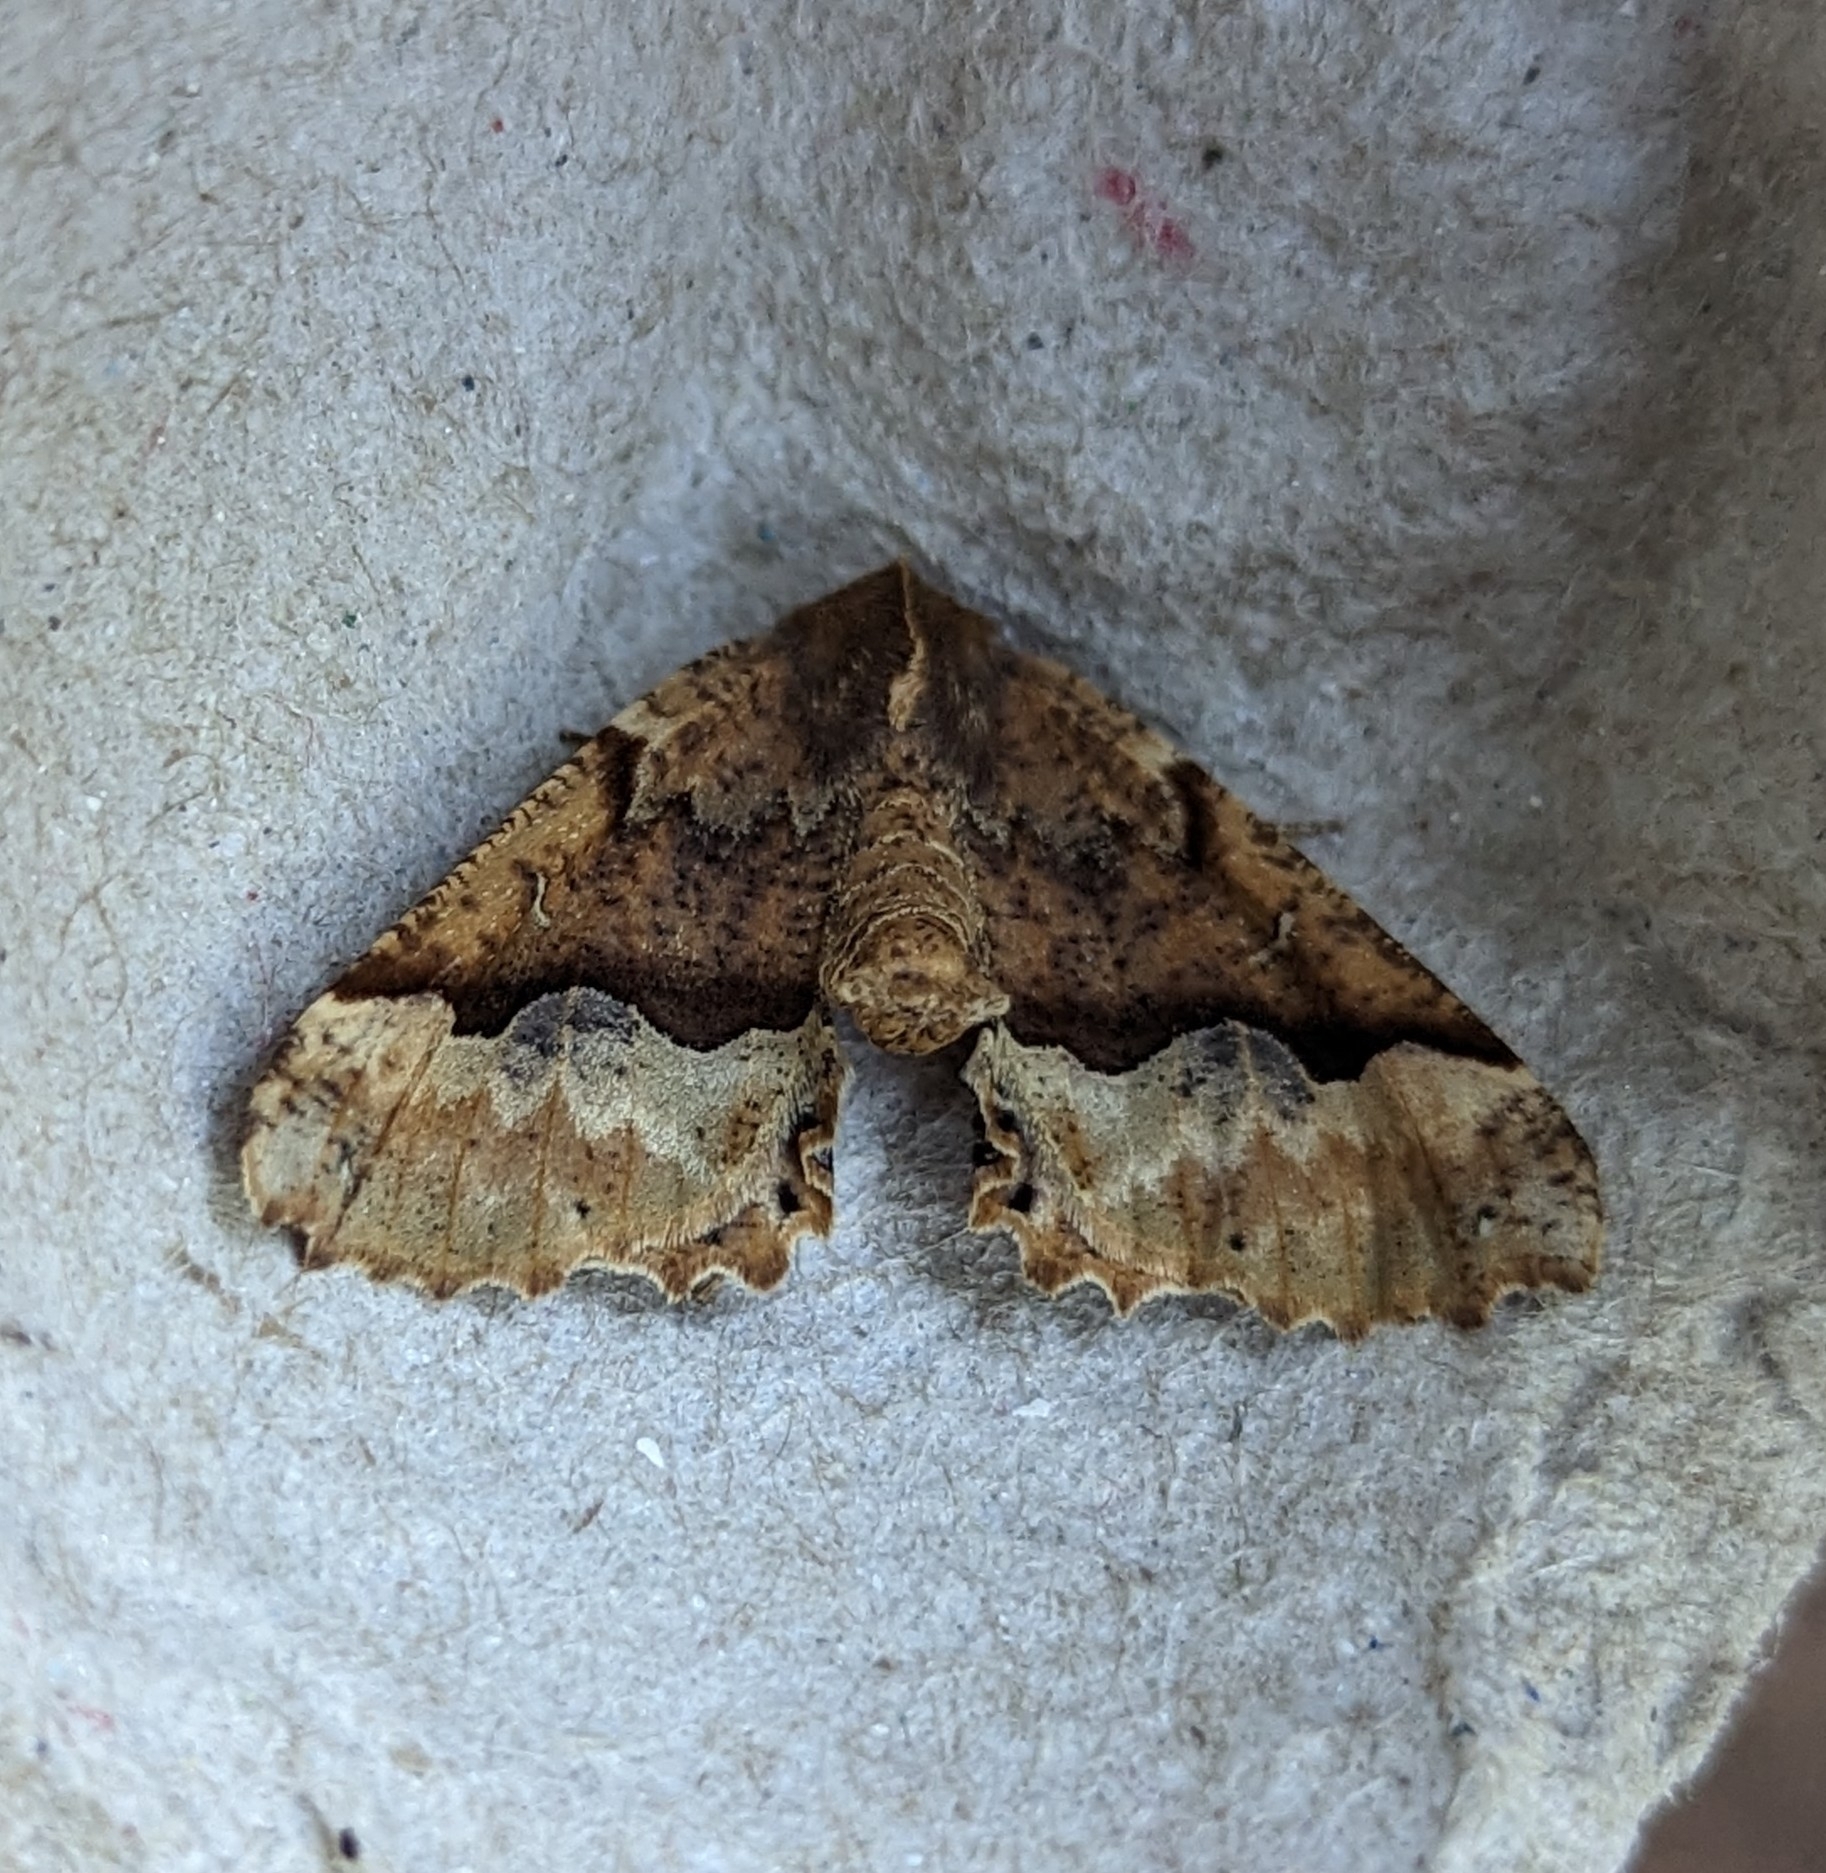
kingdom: Animalia
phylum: Arthropoda
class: Insecta
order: Lepidoptera
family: Geometridae
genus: Pero
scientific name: Pero morrisonaria
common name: Morrison's pero
